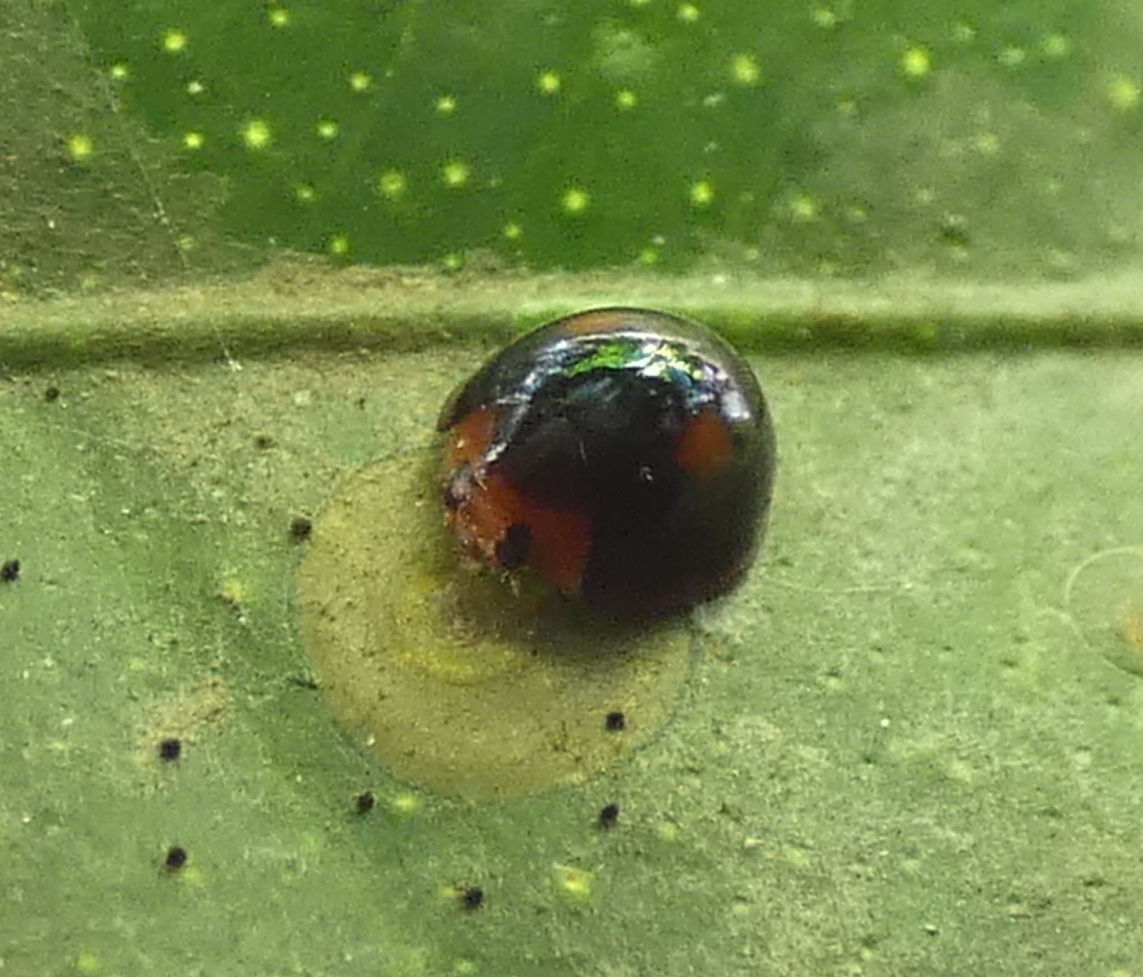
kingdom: Animalia
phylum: Arthropoda
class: Insecta
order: Coleoptera
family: Coccinellidae
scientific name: Coccinellidae
